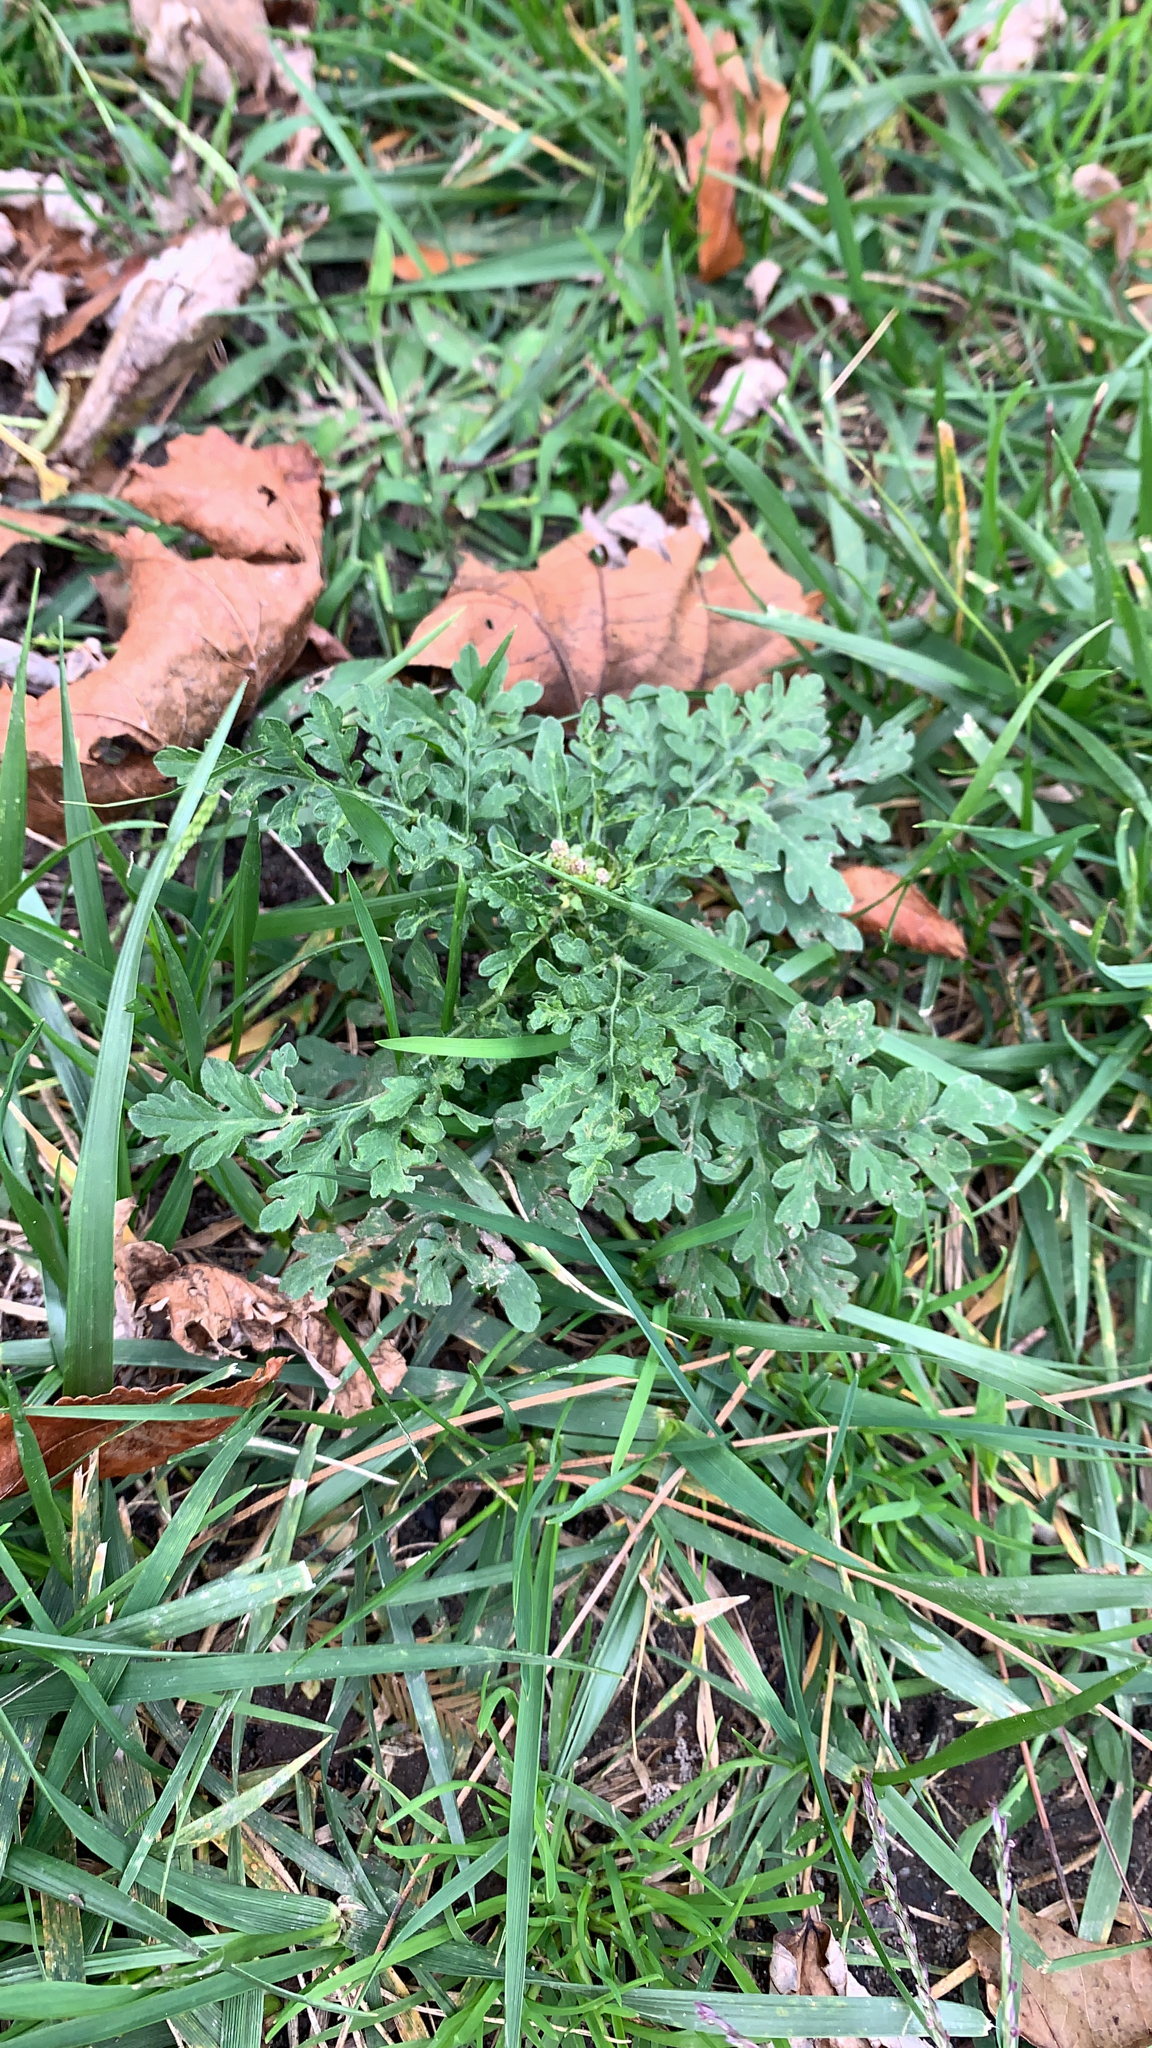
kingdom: Plantae
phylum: Tracheophyta
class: Magnoliopsida
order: Asterales
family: Asteraceae
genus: Ambrosia
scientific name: Ambrosia artemisiifolia
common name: Annual ragweed
